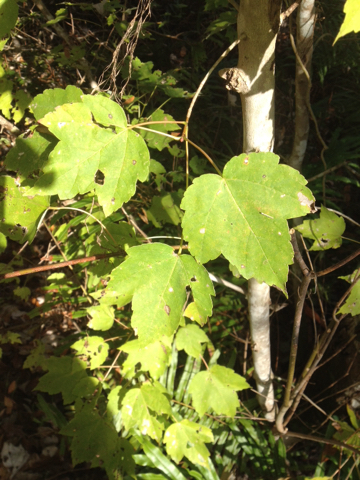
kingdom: Plantae
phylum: Tracheophyta
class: Magnoliopsida
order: Sapindales
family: Sapindaceae
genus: Acer
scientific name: Acer rubrum
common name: Red maple
